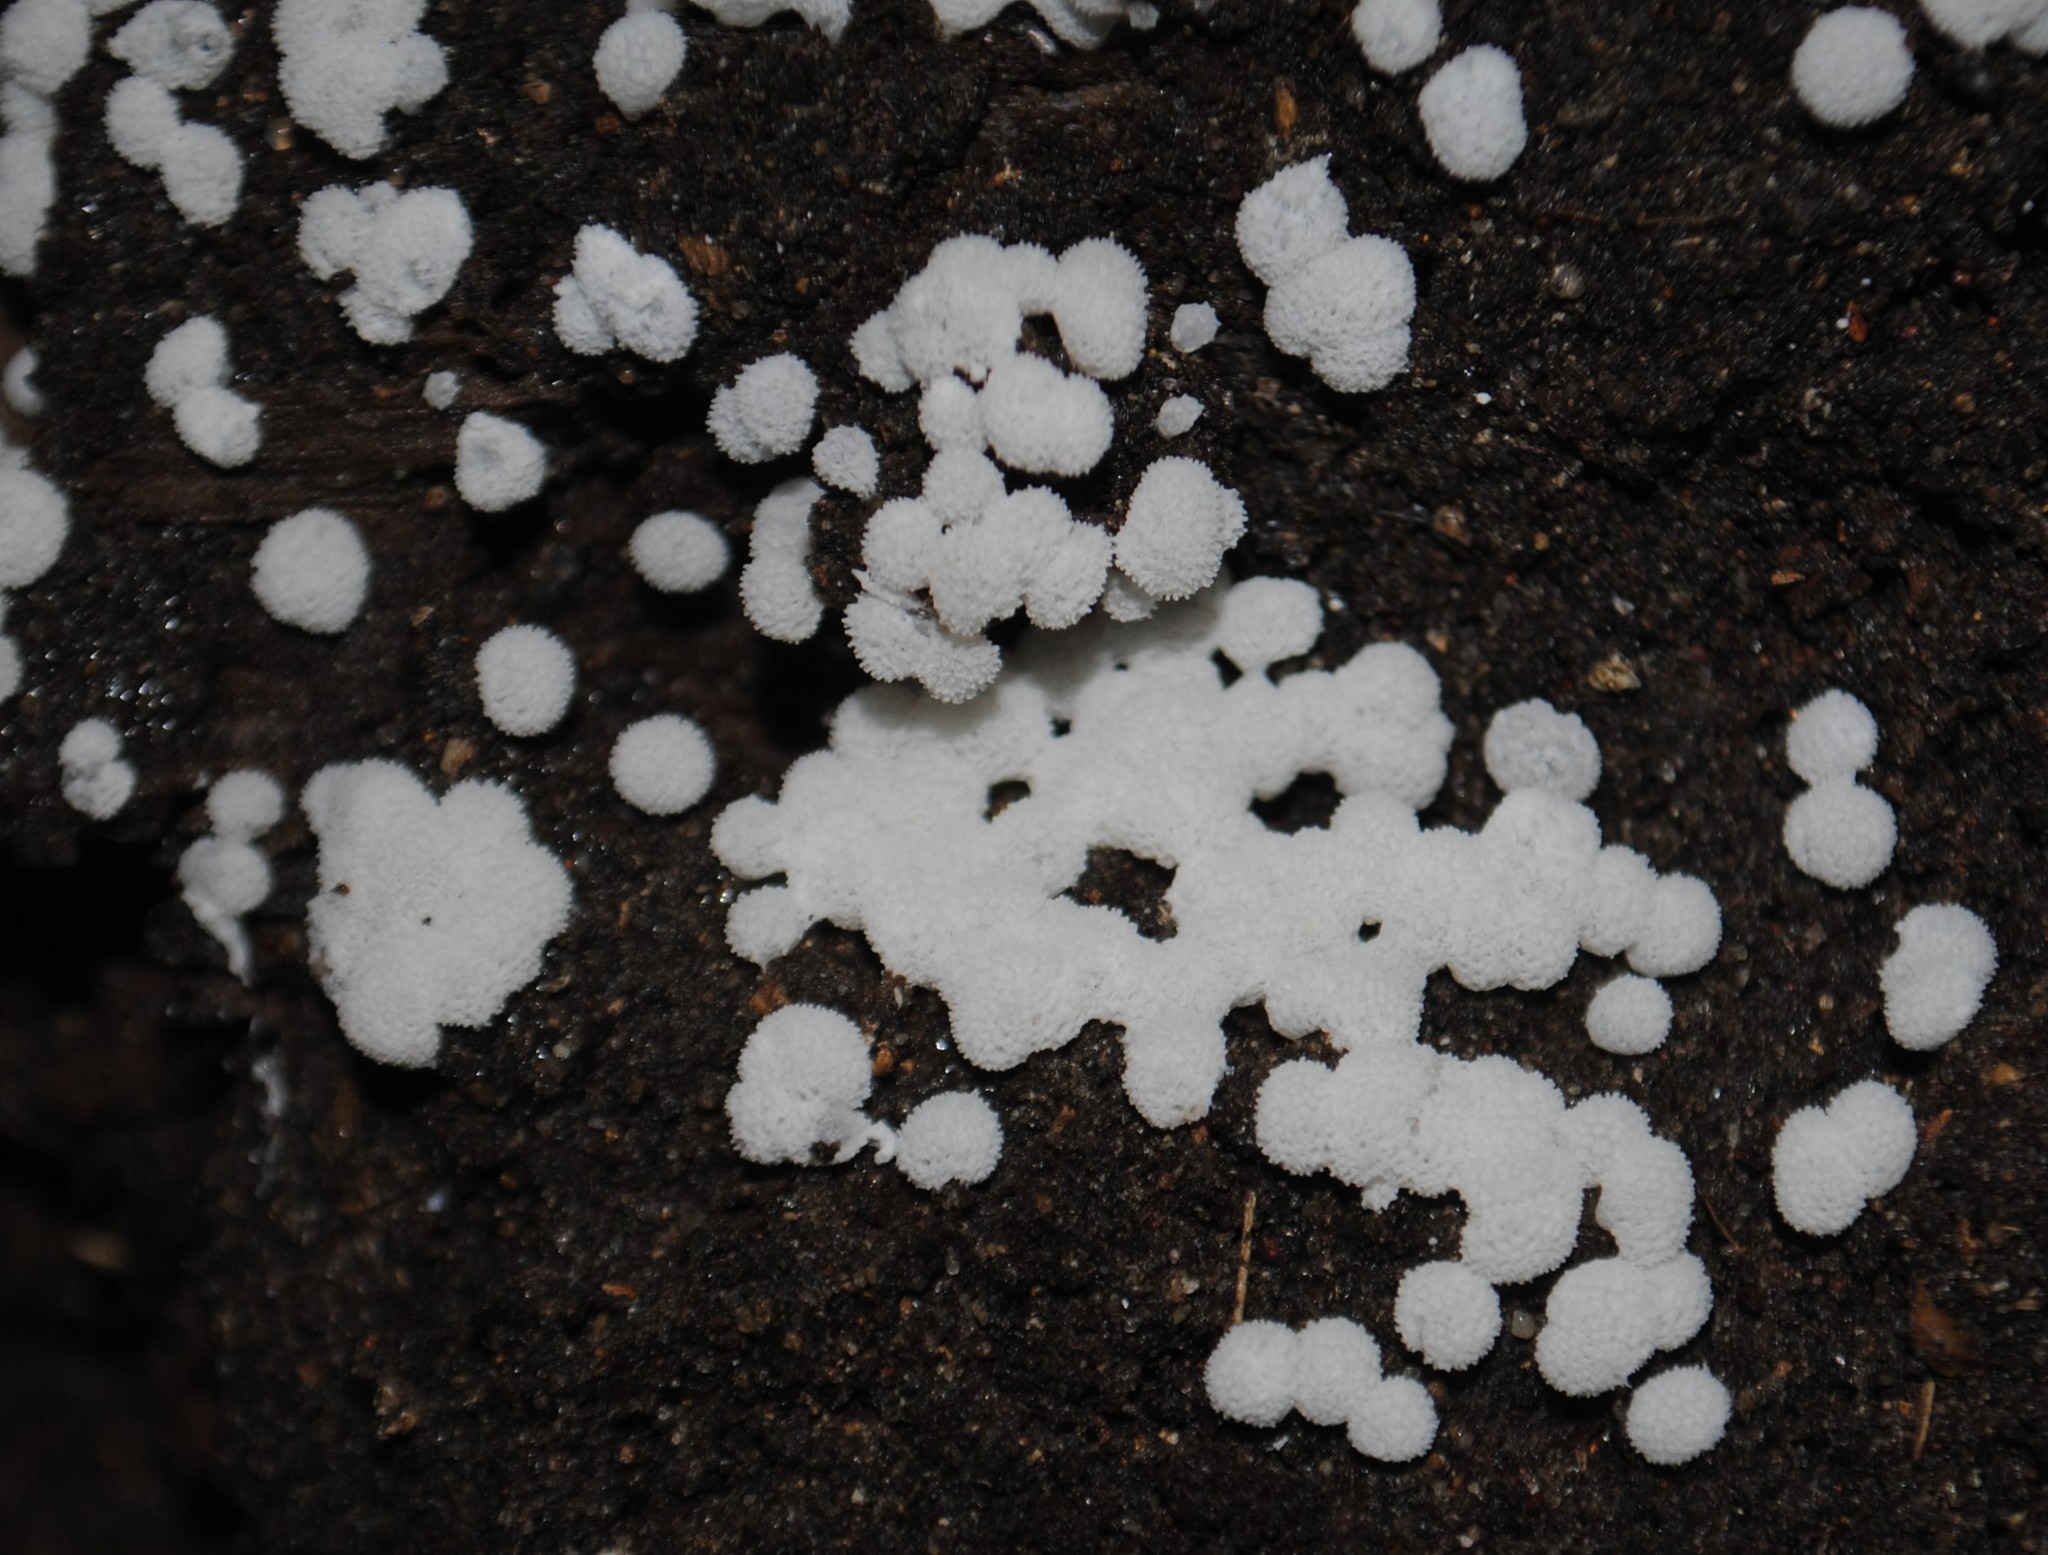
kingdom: Protozoa
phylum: Mycetozoa
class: Protosteliomycetes
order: Ceratiomyxales
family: Ceratiomyxaceae
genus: Ceratiomyxa
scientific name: Ceratiomyxa fruticulosa
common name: Honeycomb coral slime mold
